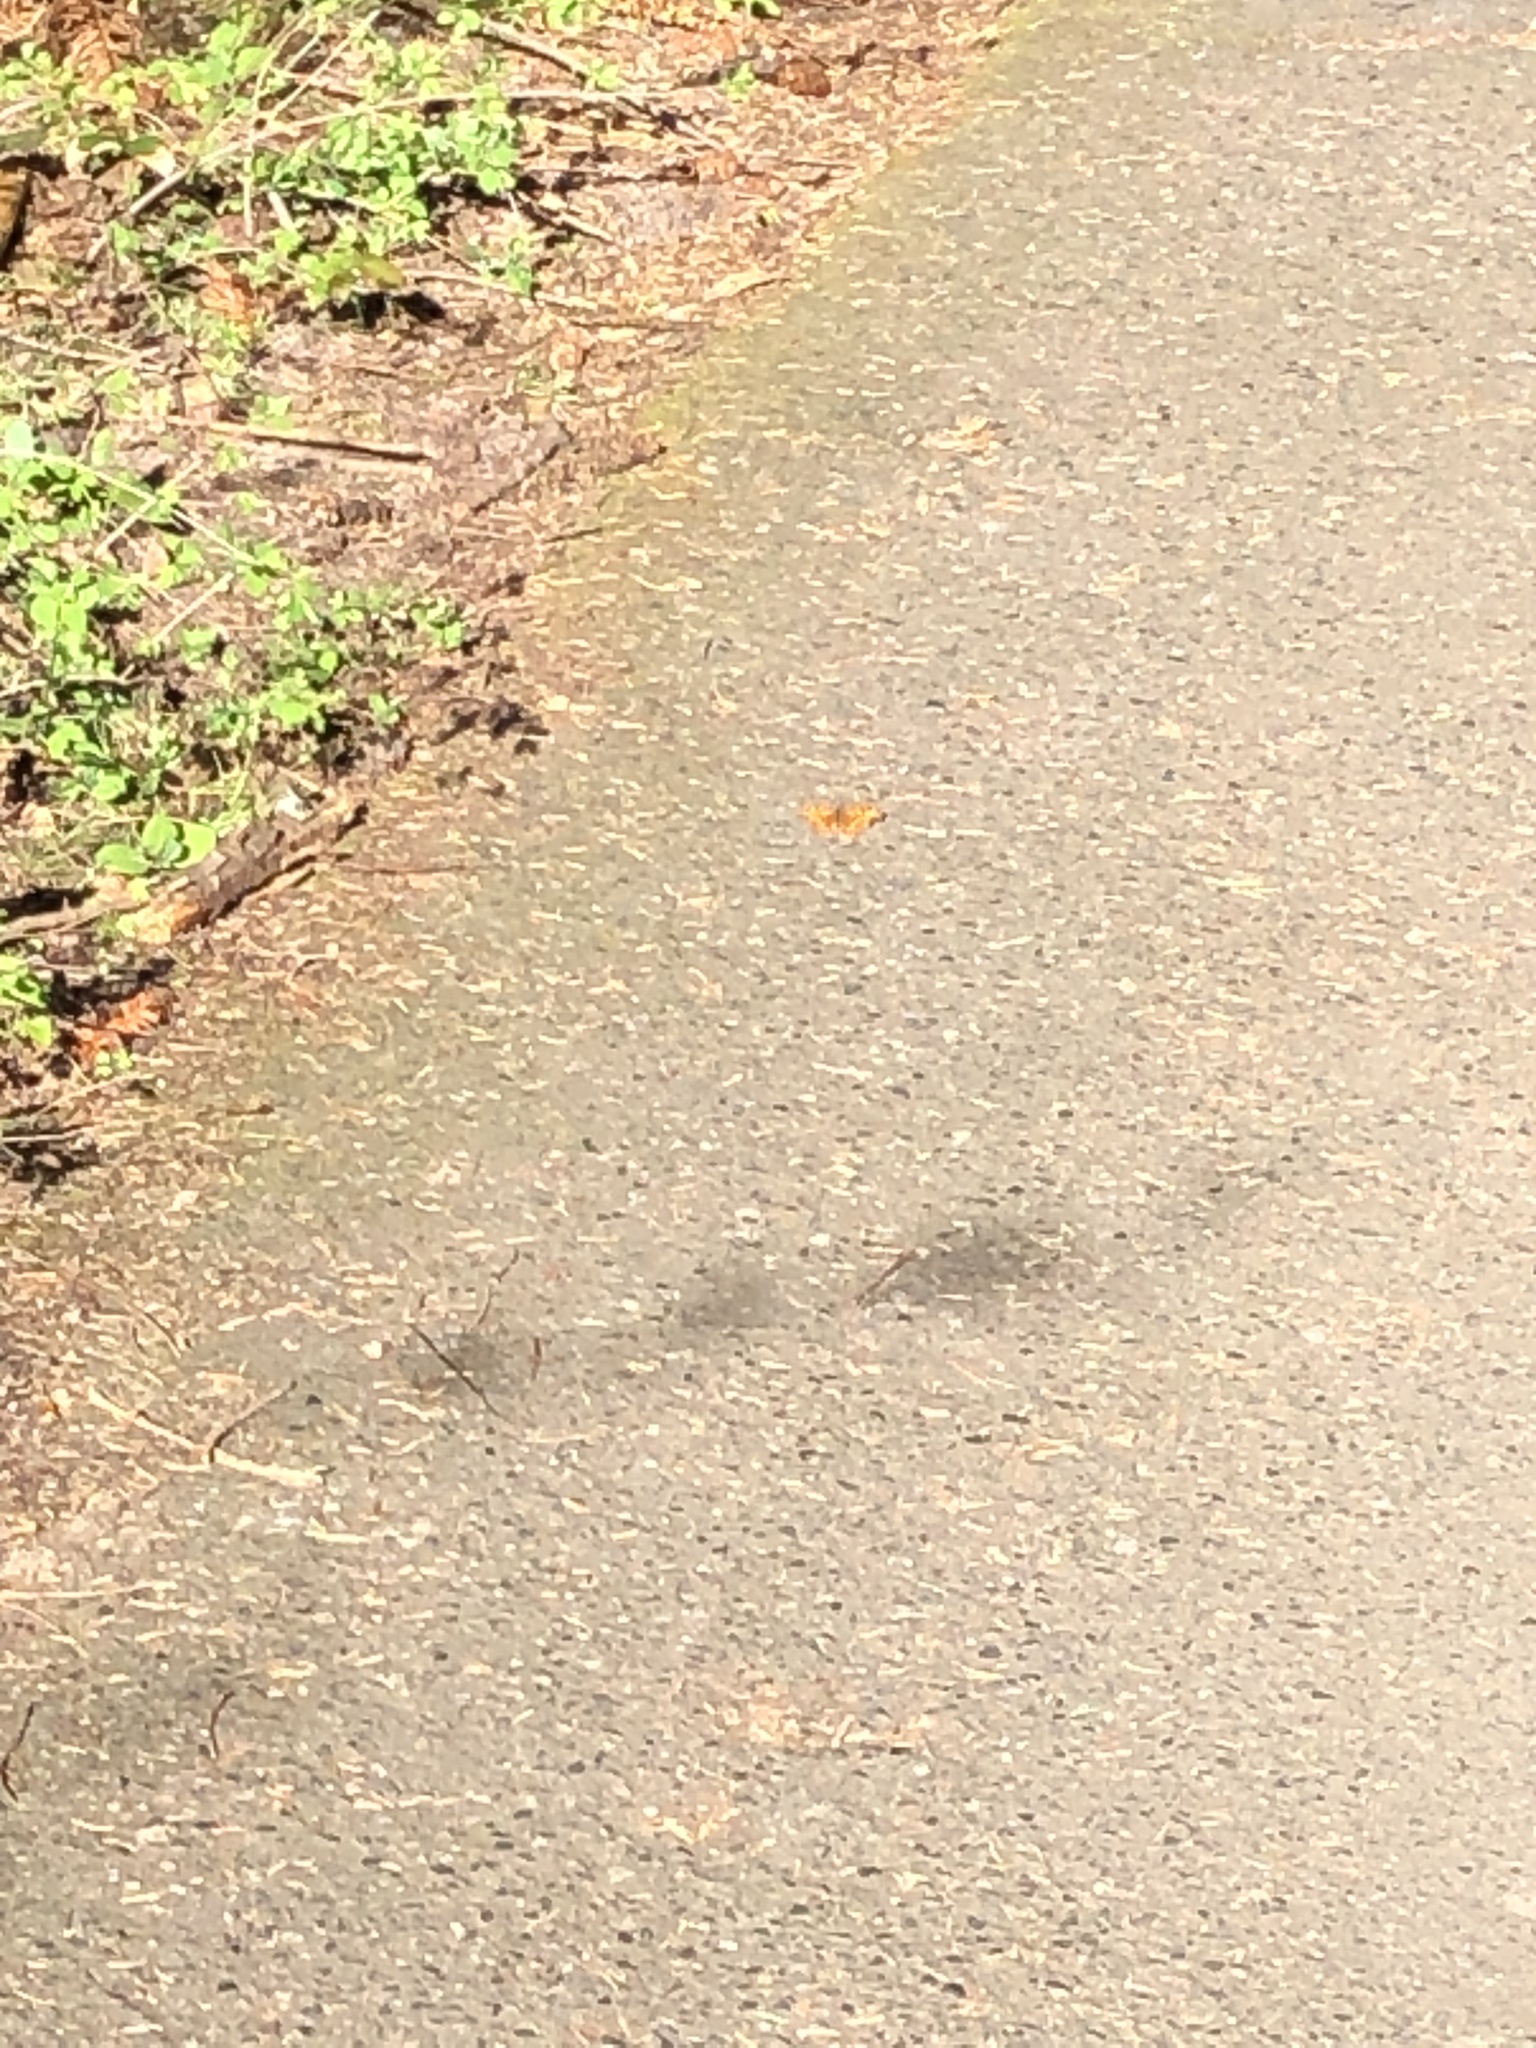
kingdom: Animalia
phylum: Arthropoda
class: Insecta
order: Lepidoptera
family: Nymphalidae
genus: Polygonia
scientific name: Polygonia satyrus
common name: Satyr angle wing
